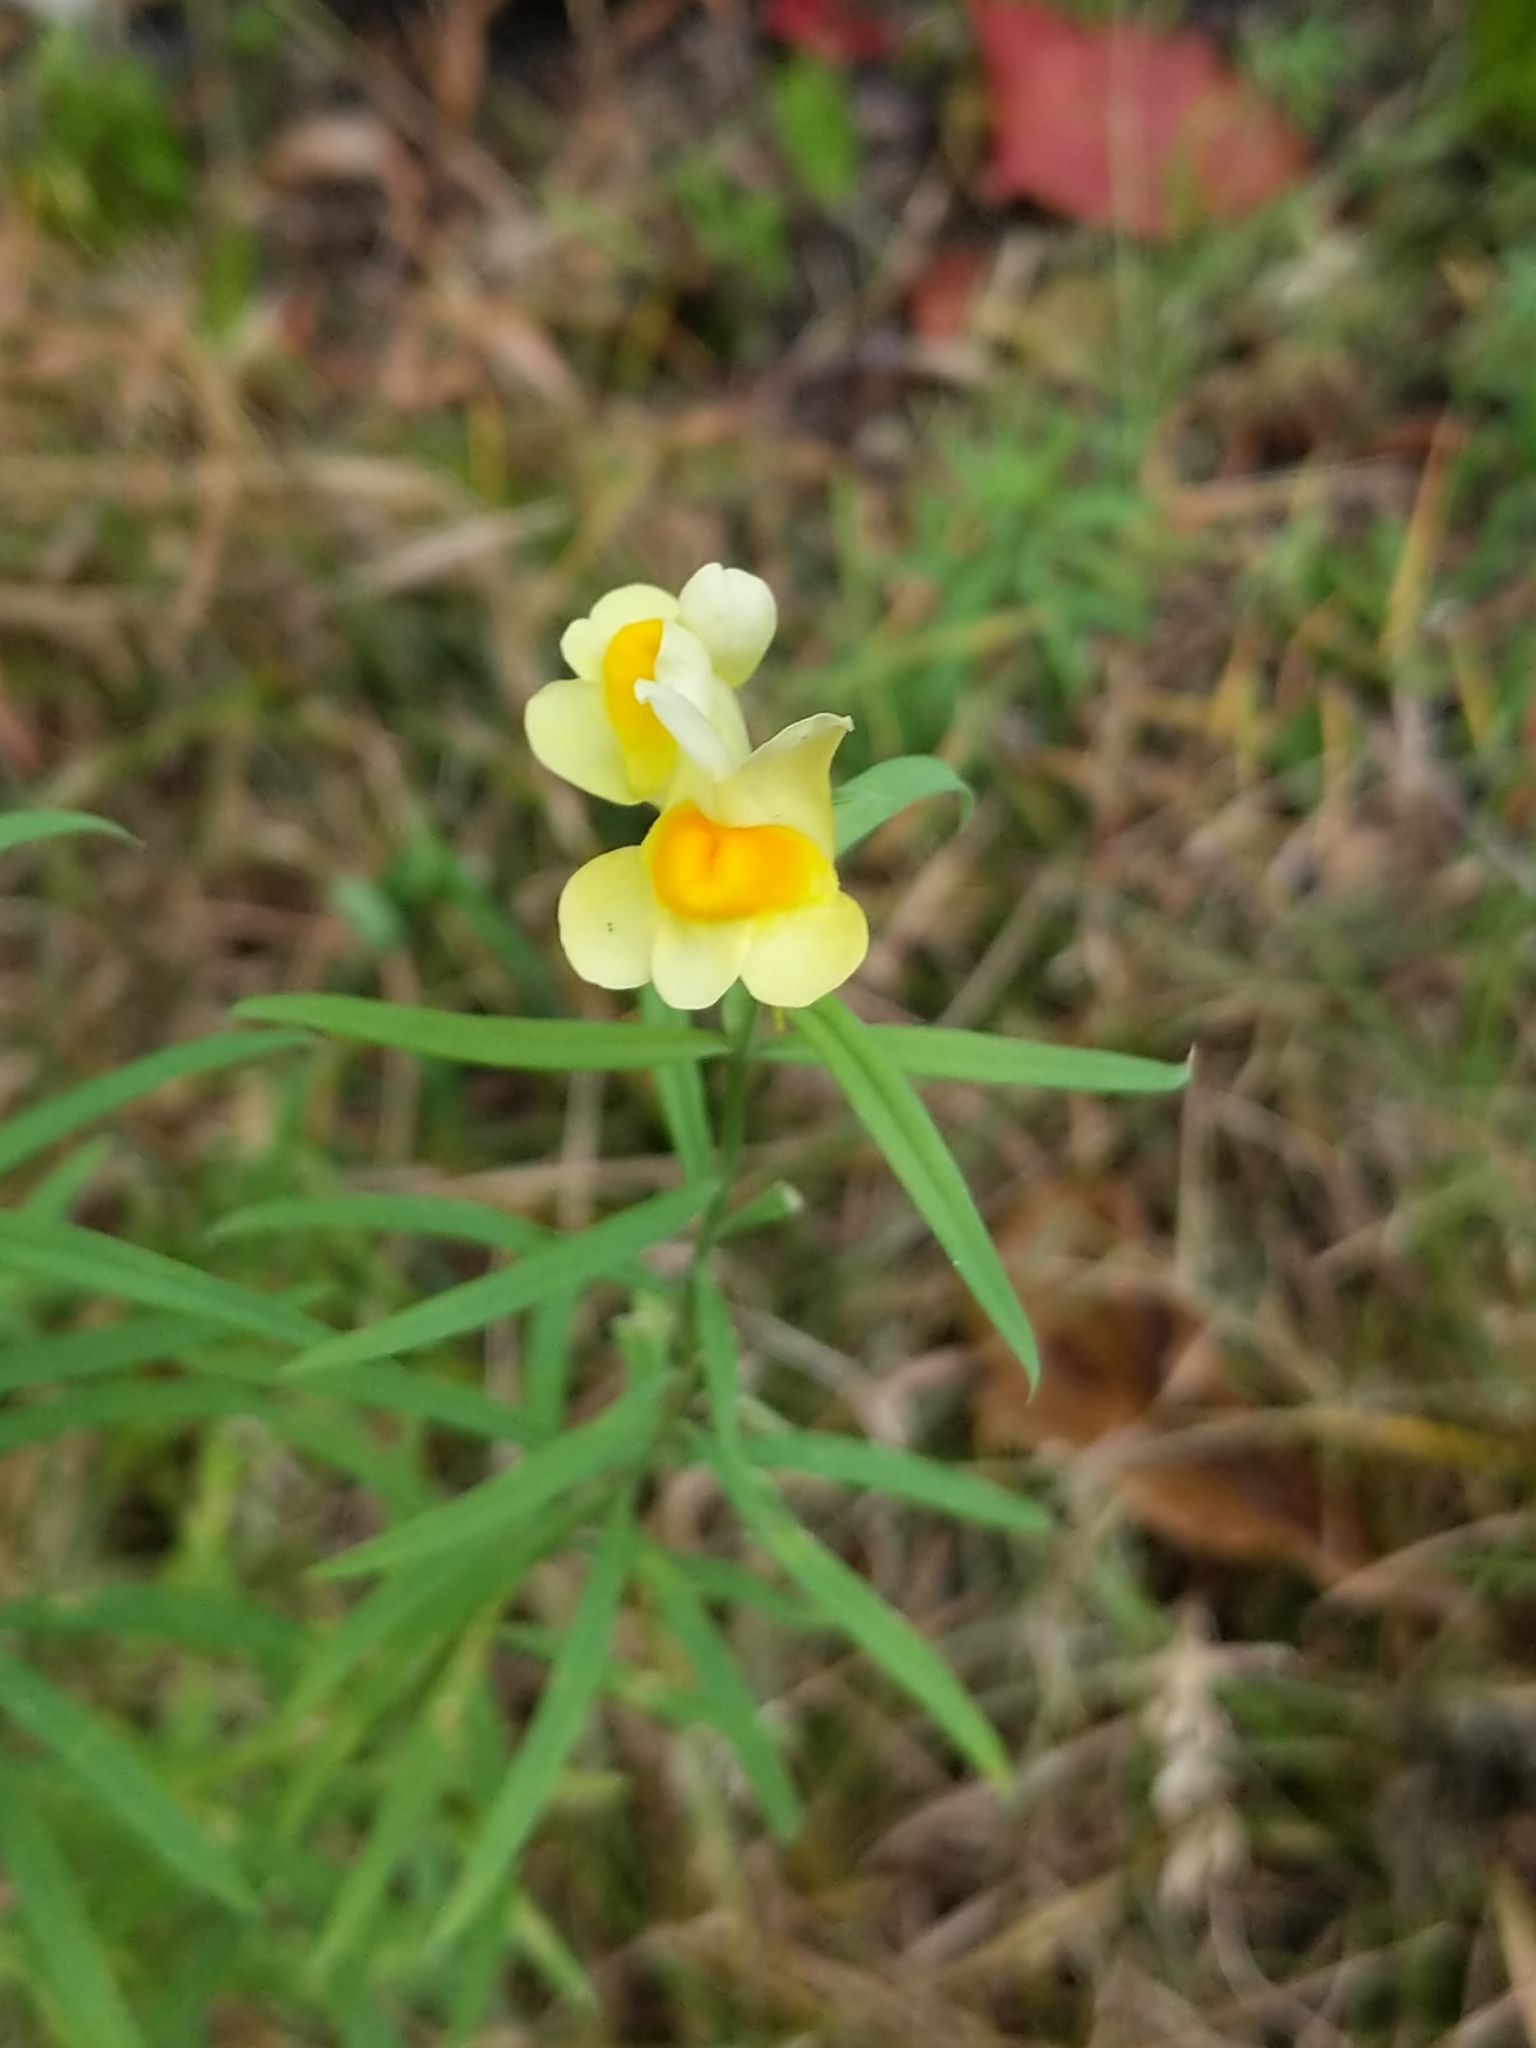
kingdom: Plantae
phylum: Tracheophyta
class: Magnoliopsida
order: Lamiales
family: Plantaginaceae
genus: Linaria
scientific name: Linaria vulgaris
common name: Butter and eggs
